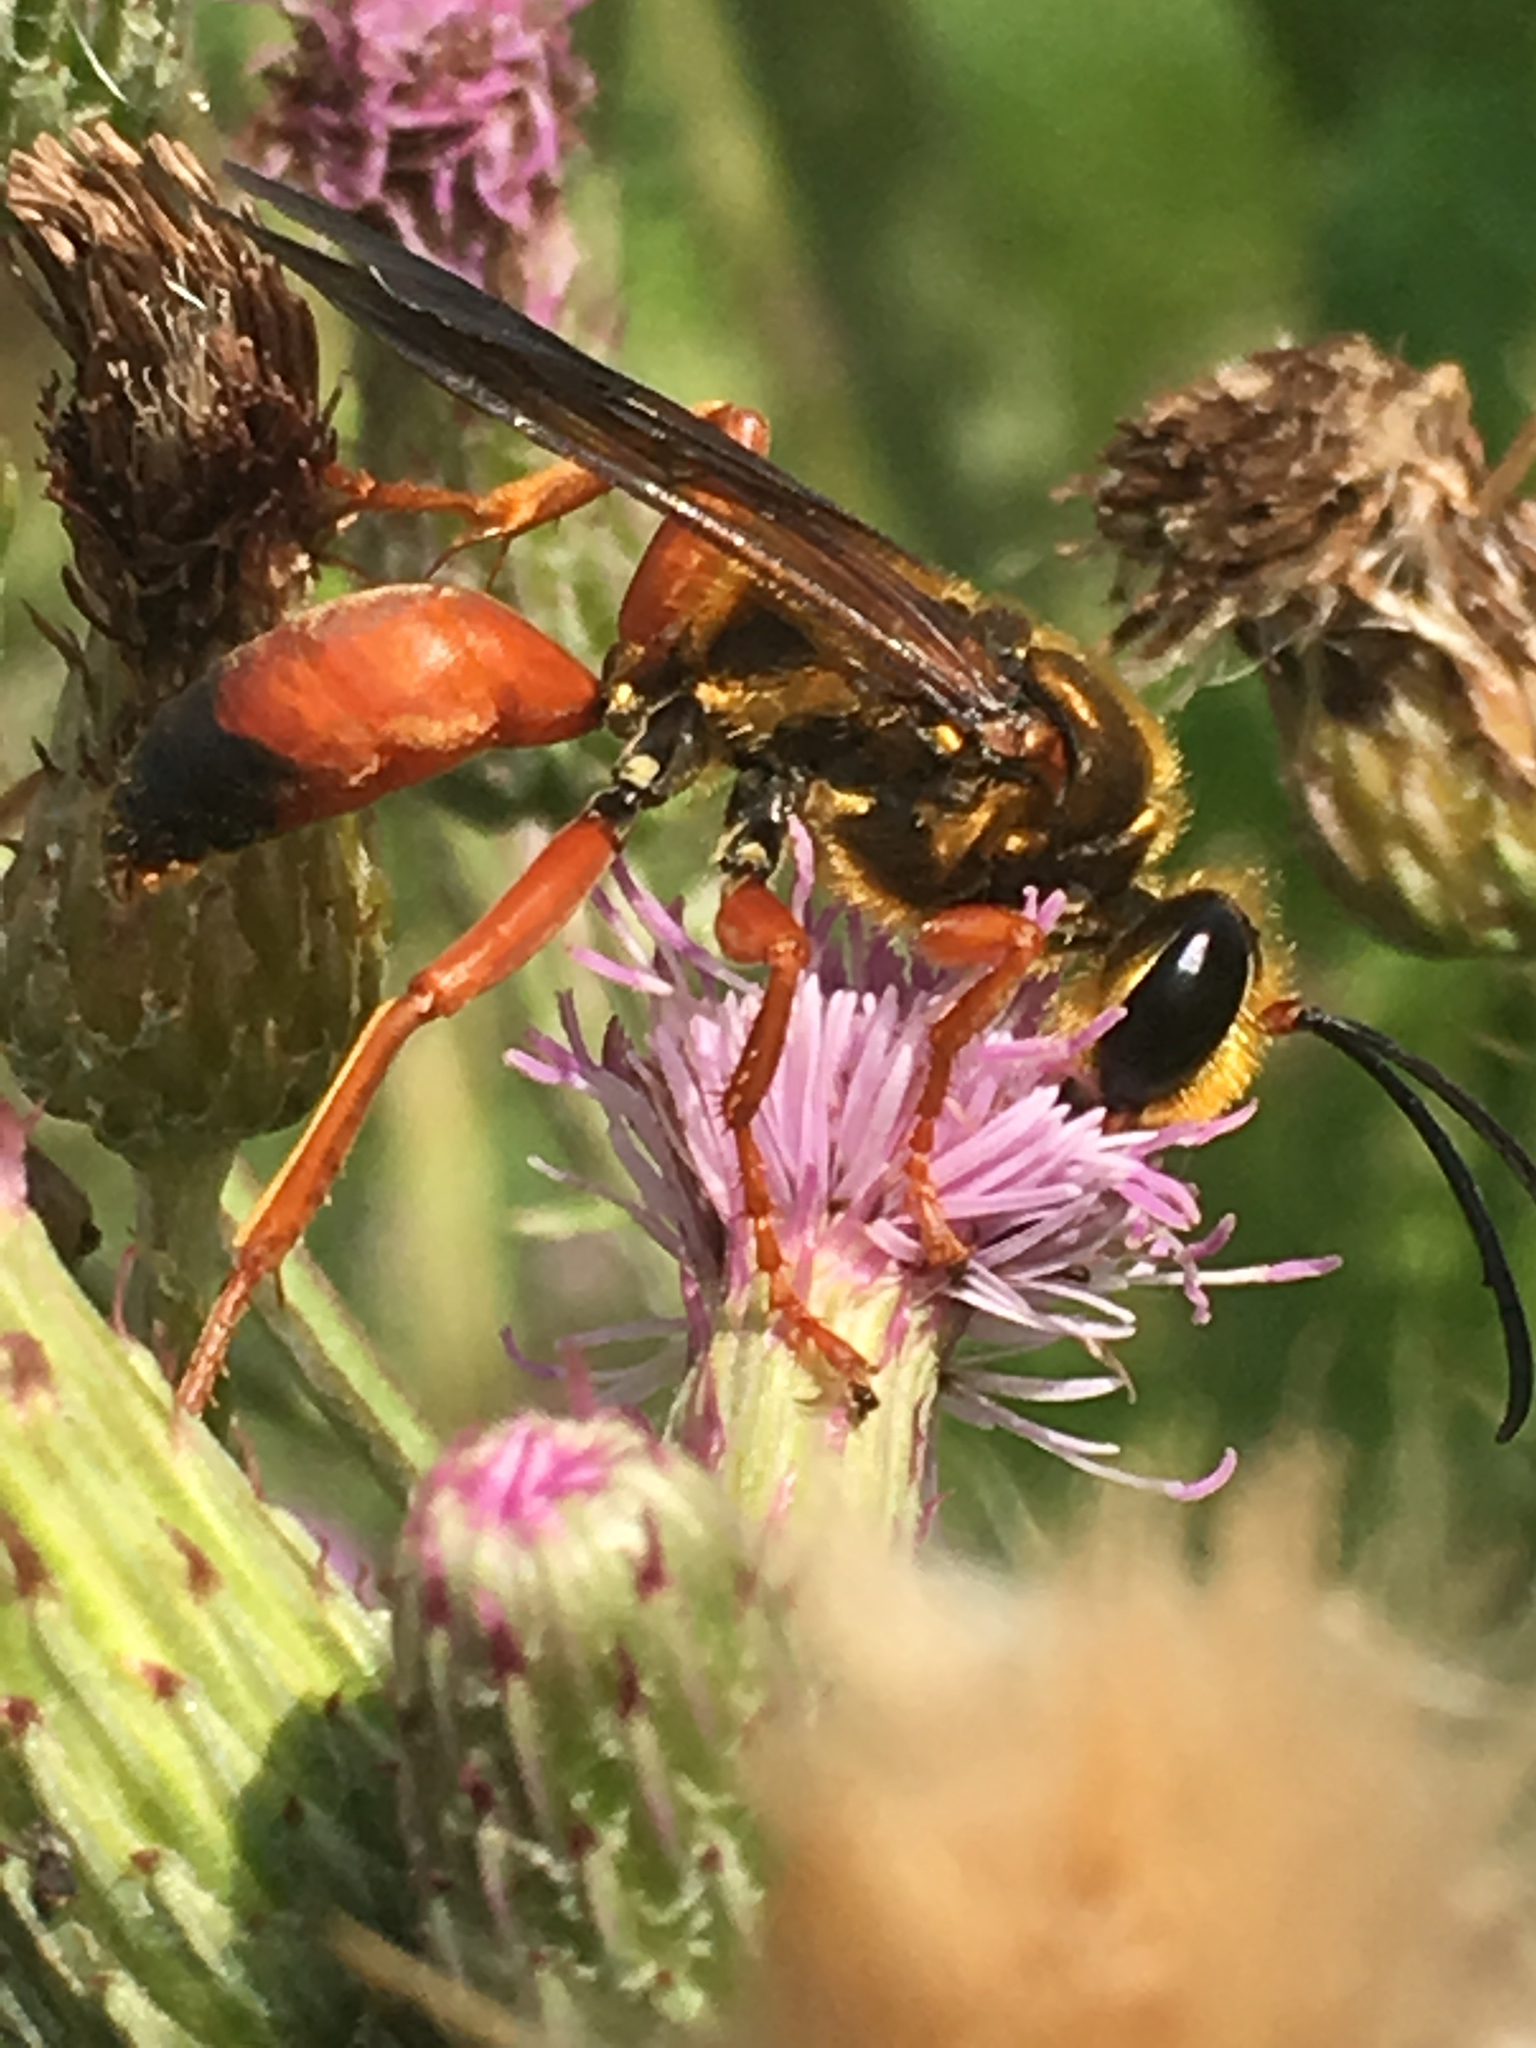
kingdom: Animalia
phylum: Arthropoda
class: Insecta
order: Hymenoptera
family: Sphecidae
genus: Sphex
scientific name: Sphex ichneumoneus
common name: Great golden digger wasp
